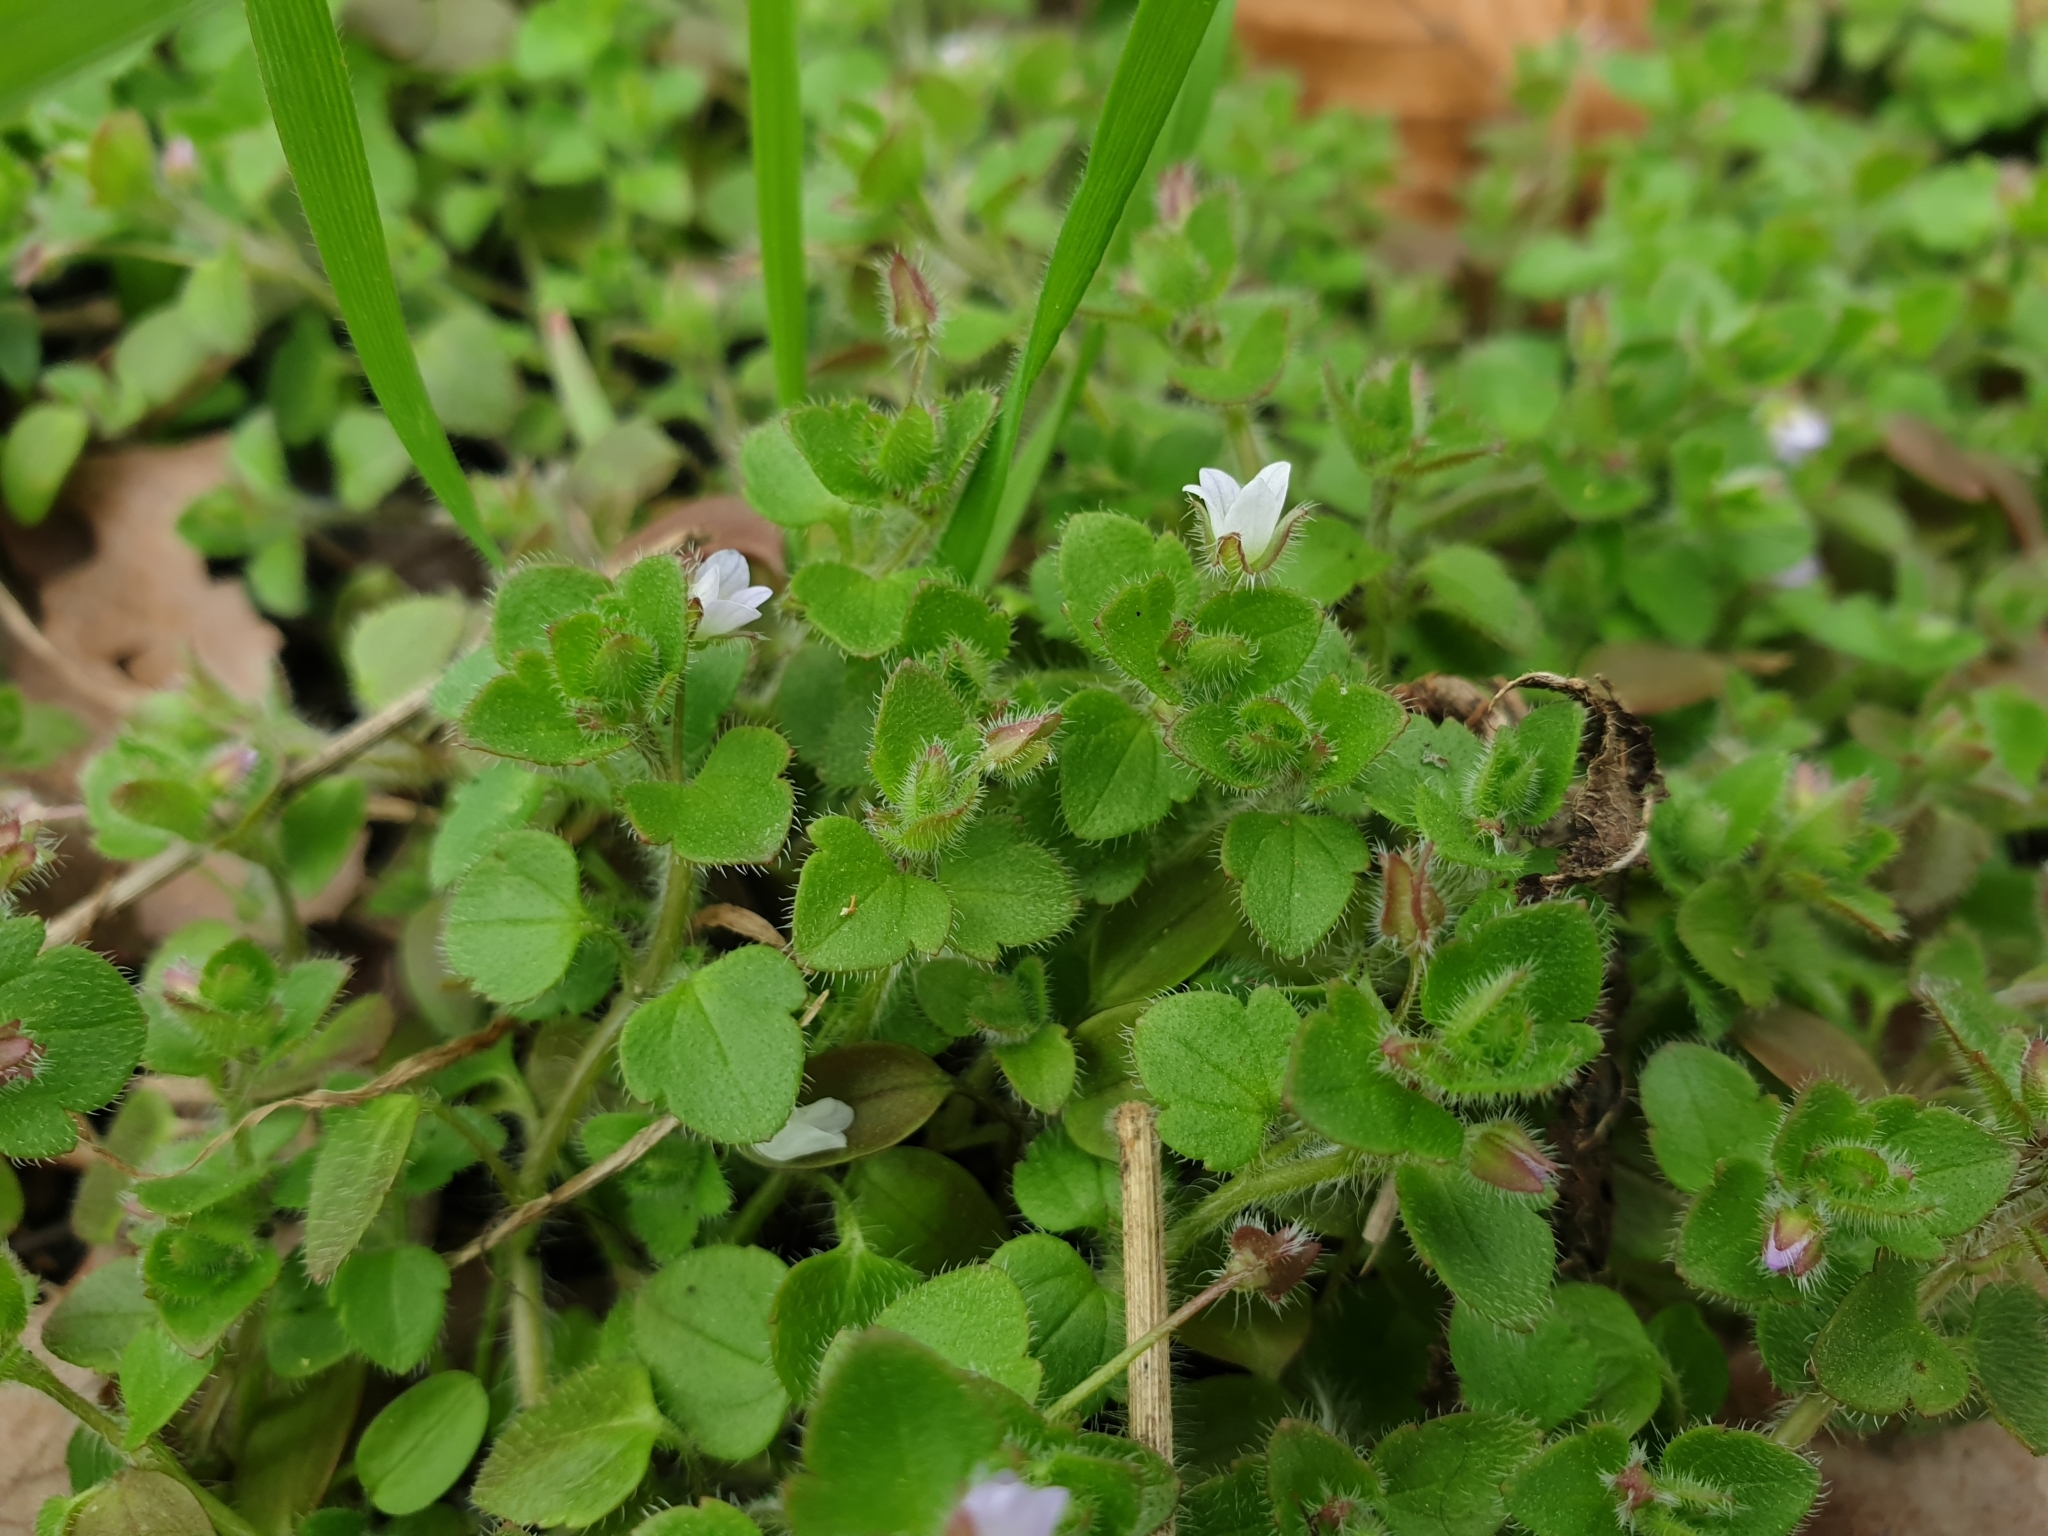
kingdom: Plantae
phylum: Tracheophyta
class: Magnoliopsida
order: Lamiales
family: Plantaginaceae
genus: Veronica
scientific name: Veronica sublobata
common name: False ivy-leaved speedwell
